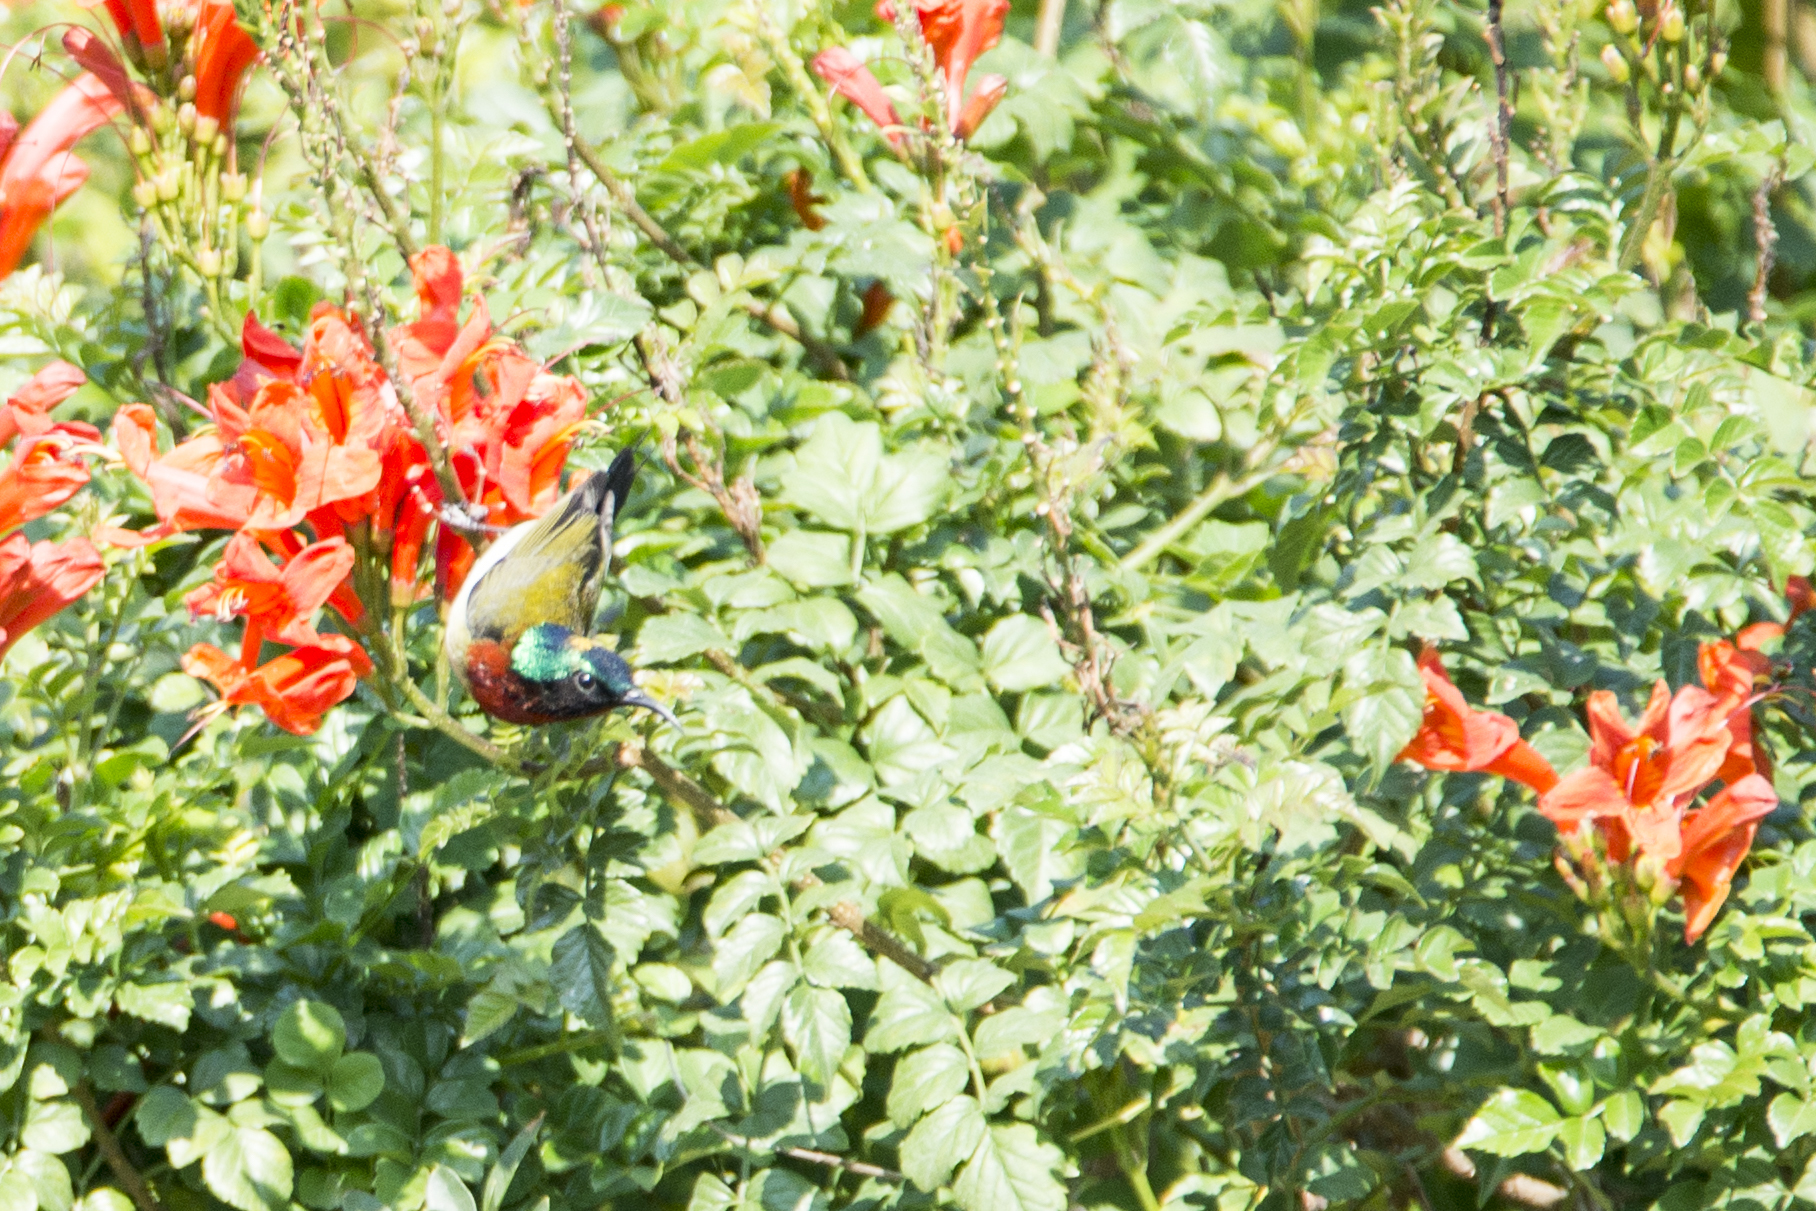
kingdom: Animalia
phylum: Chordata
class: Aves
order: Passeriformes
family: Nectariniidae
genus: Aethopyga
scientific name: Aethopyga christinae
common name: Fork-tailed sunbird
